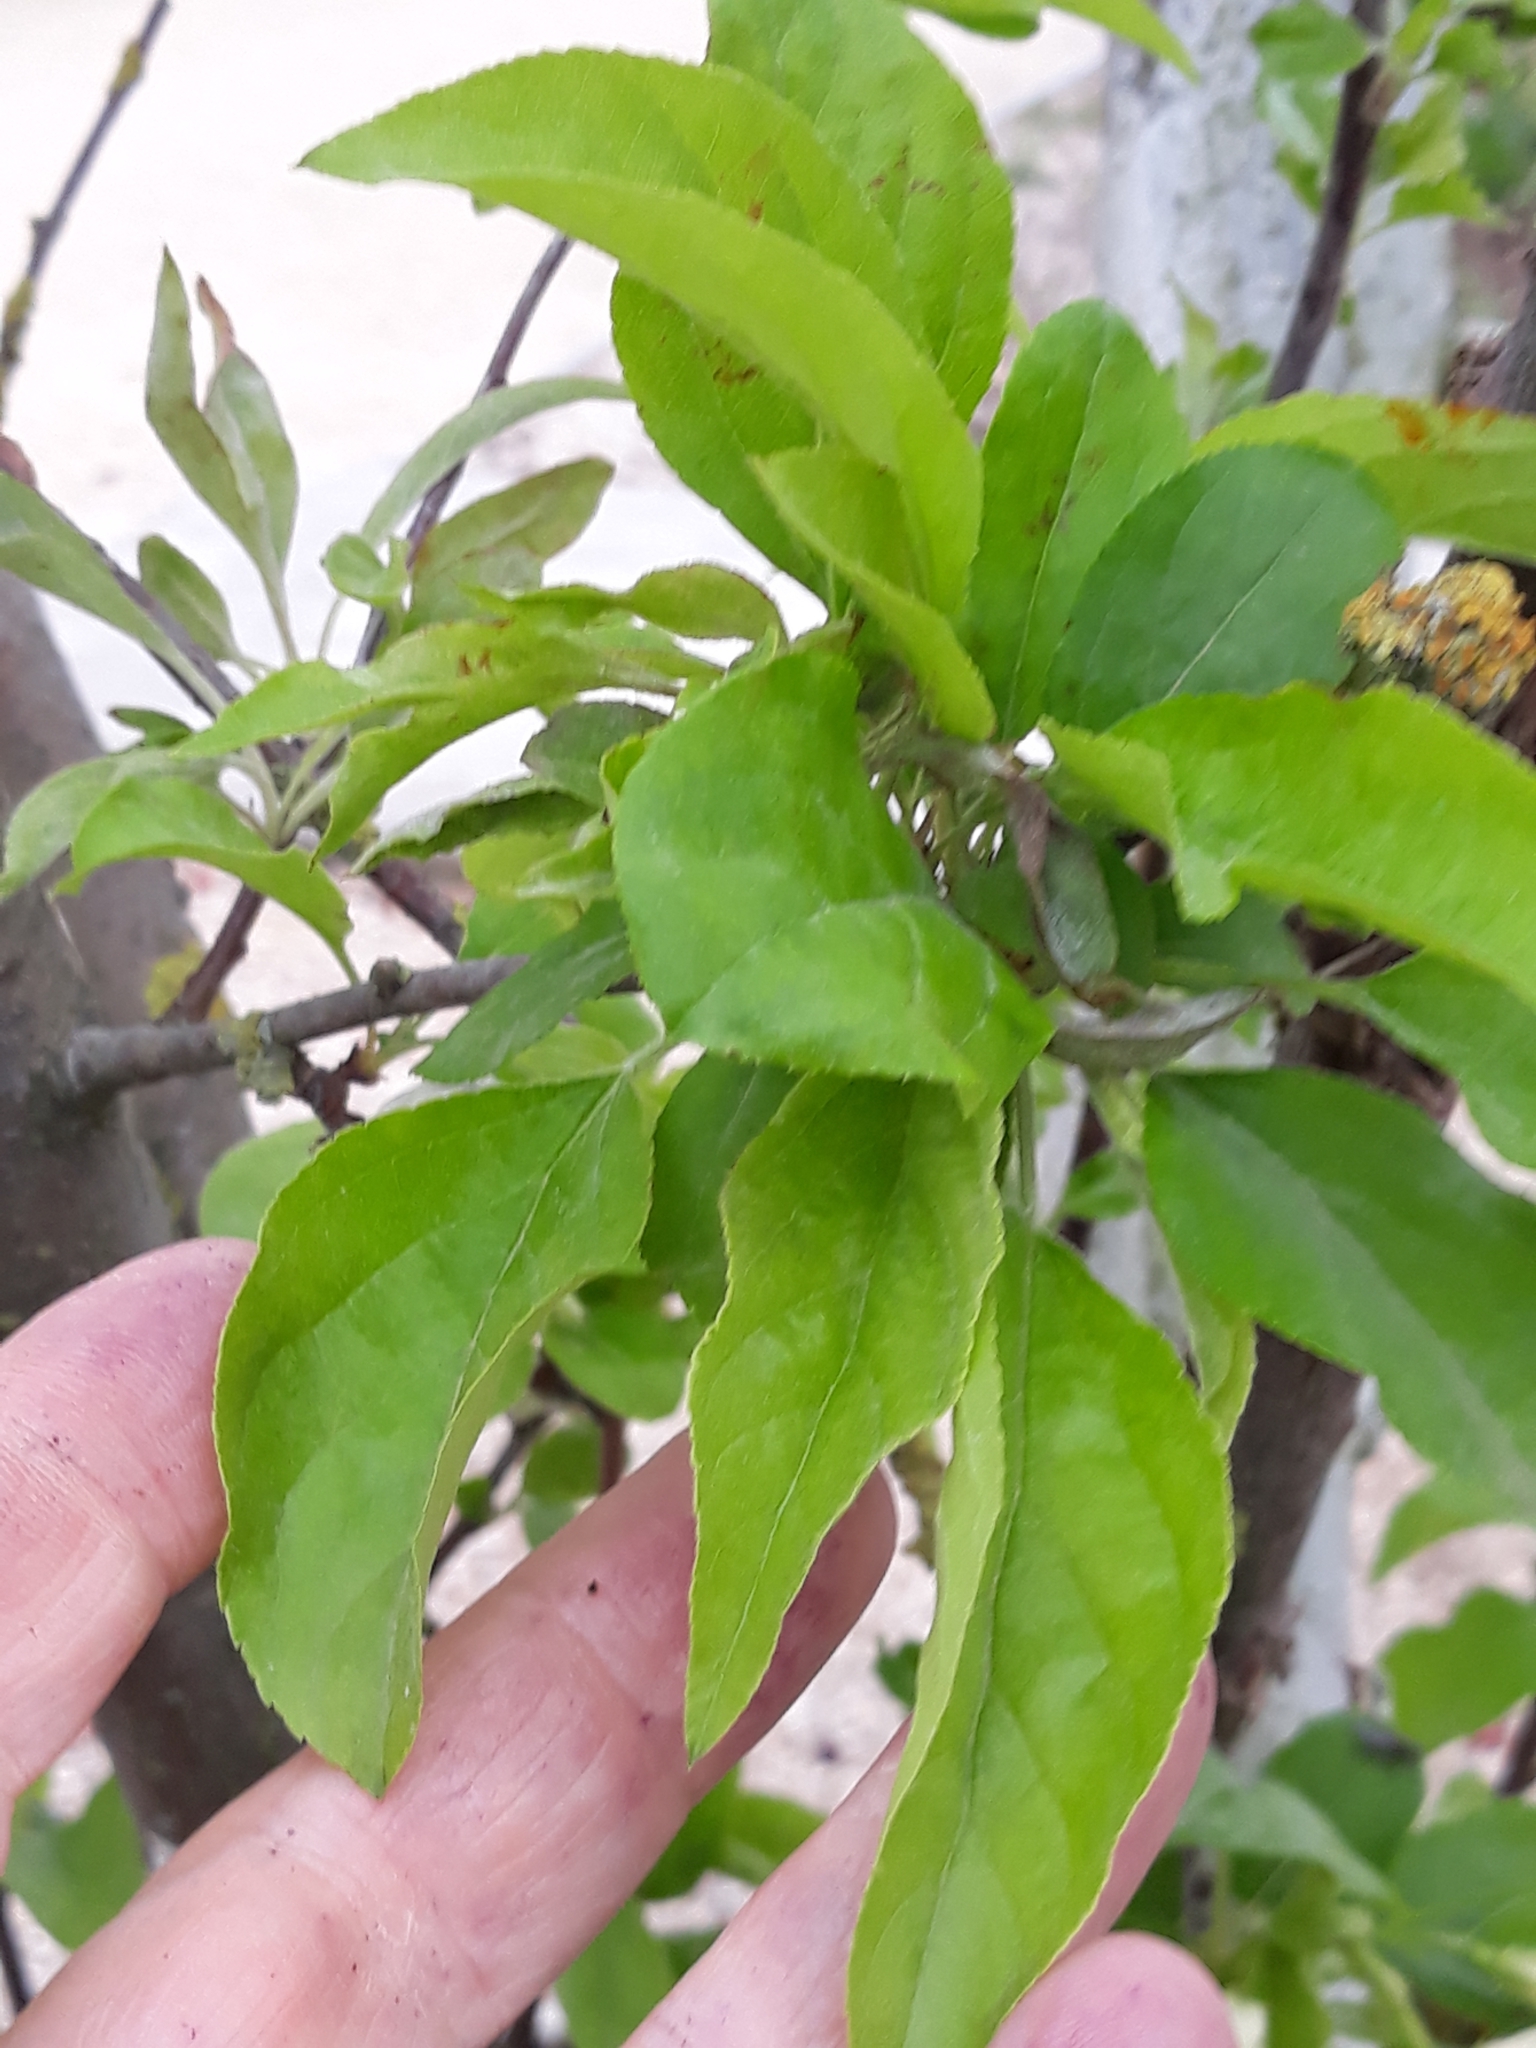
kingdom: Plantae
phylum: Tracheophyta
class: Magnoliopsida
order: Rosales
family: Rosaceae
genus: Cydonia
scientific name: Cydonia oblonga
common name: Quince
